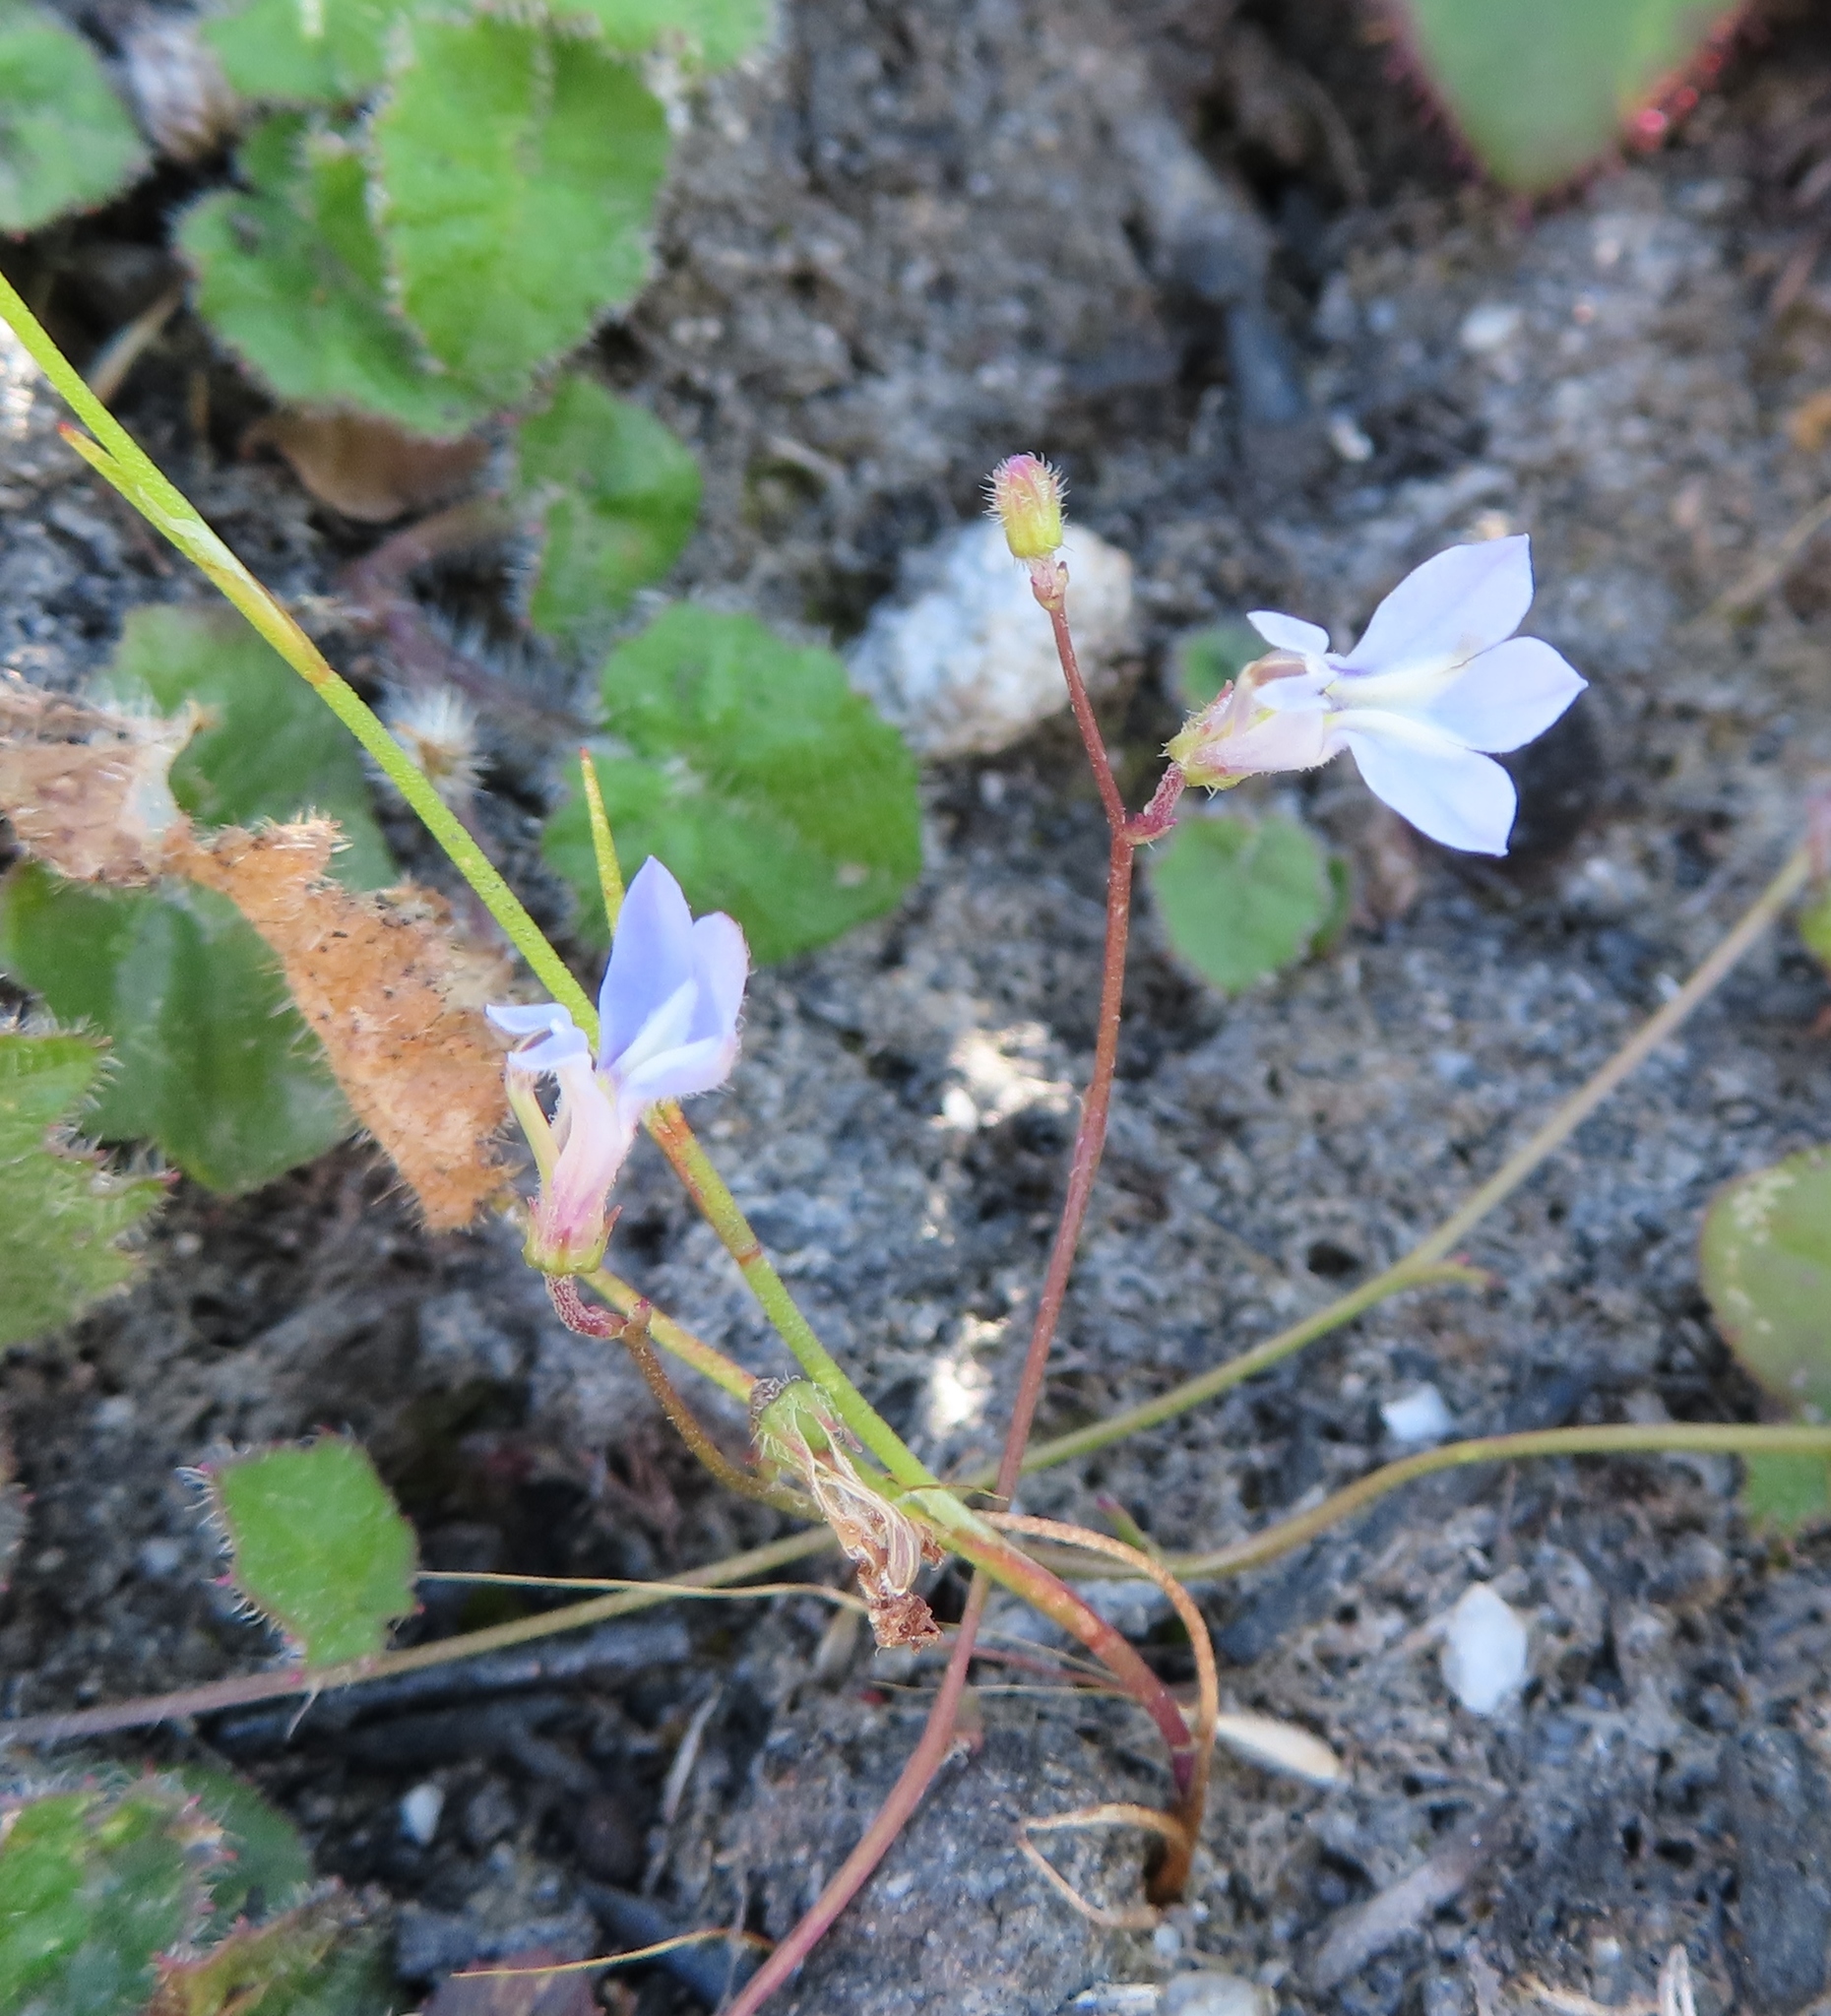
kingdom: Plantae
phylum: Tracheophyta
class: Magnoliopsida
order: Asterales
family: Campanulaceae
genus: Lobelia
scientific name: Lobelia dasyphylla
